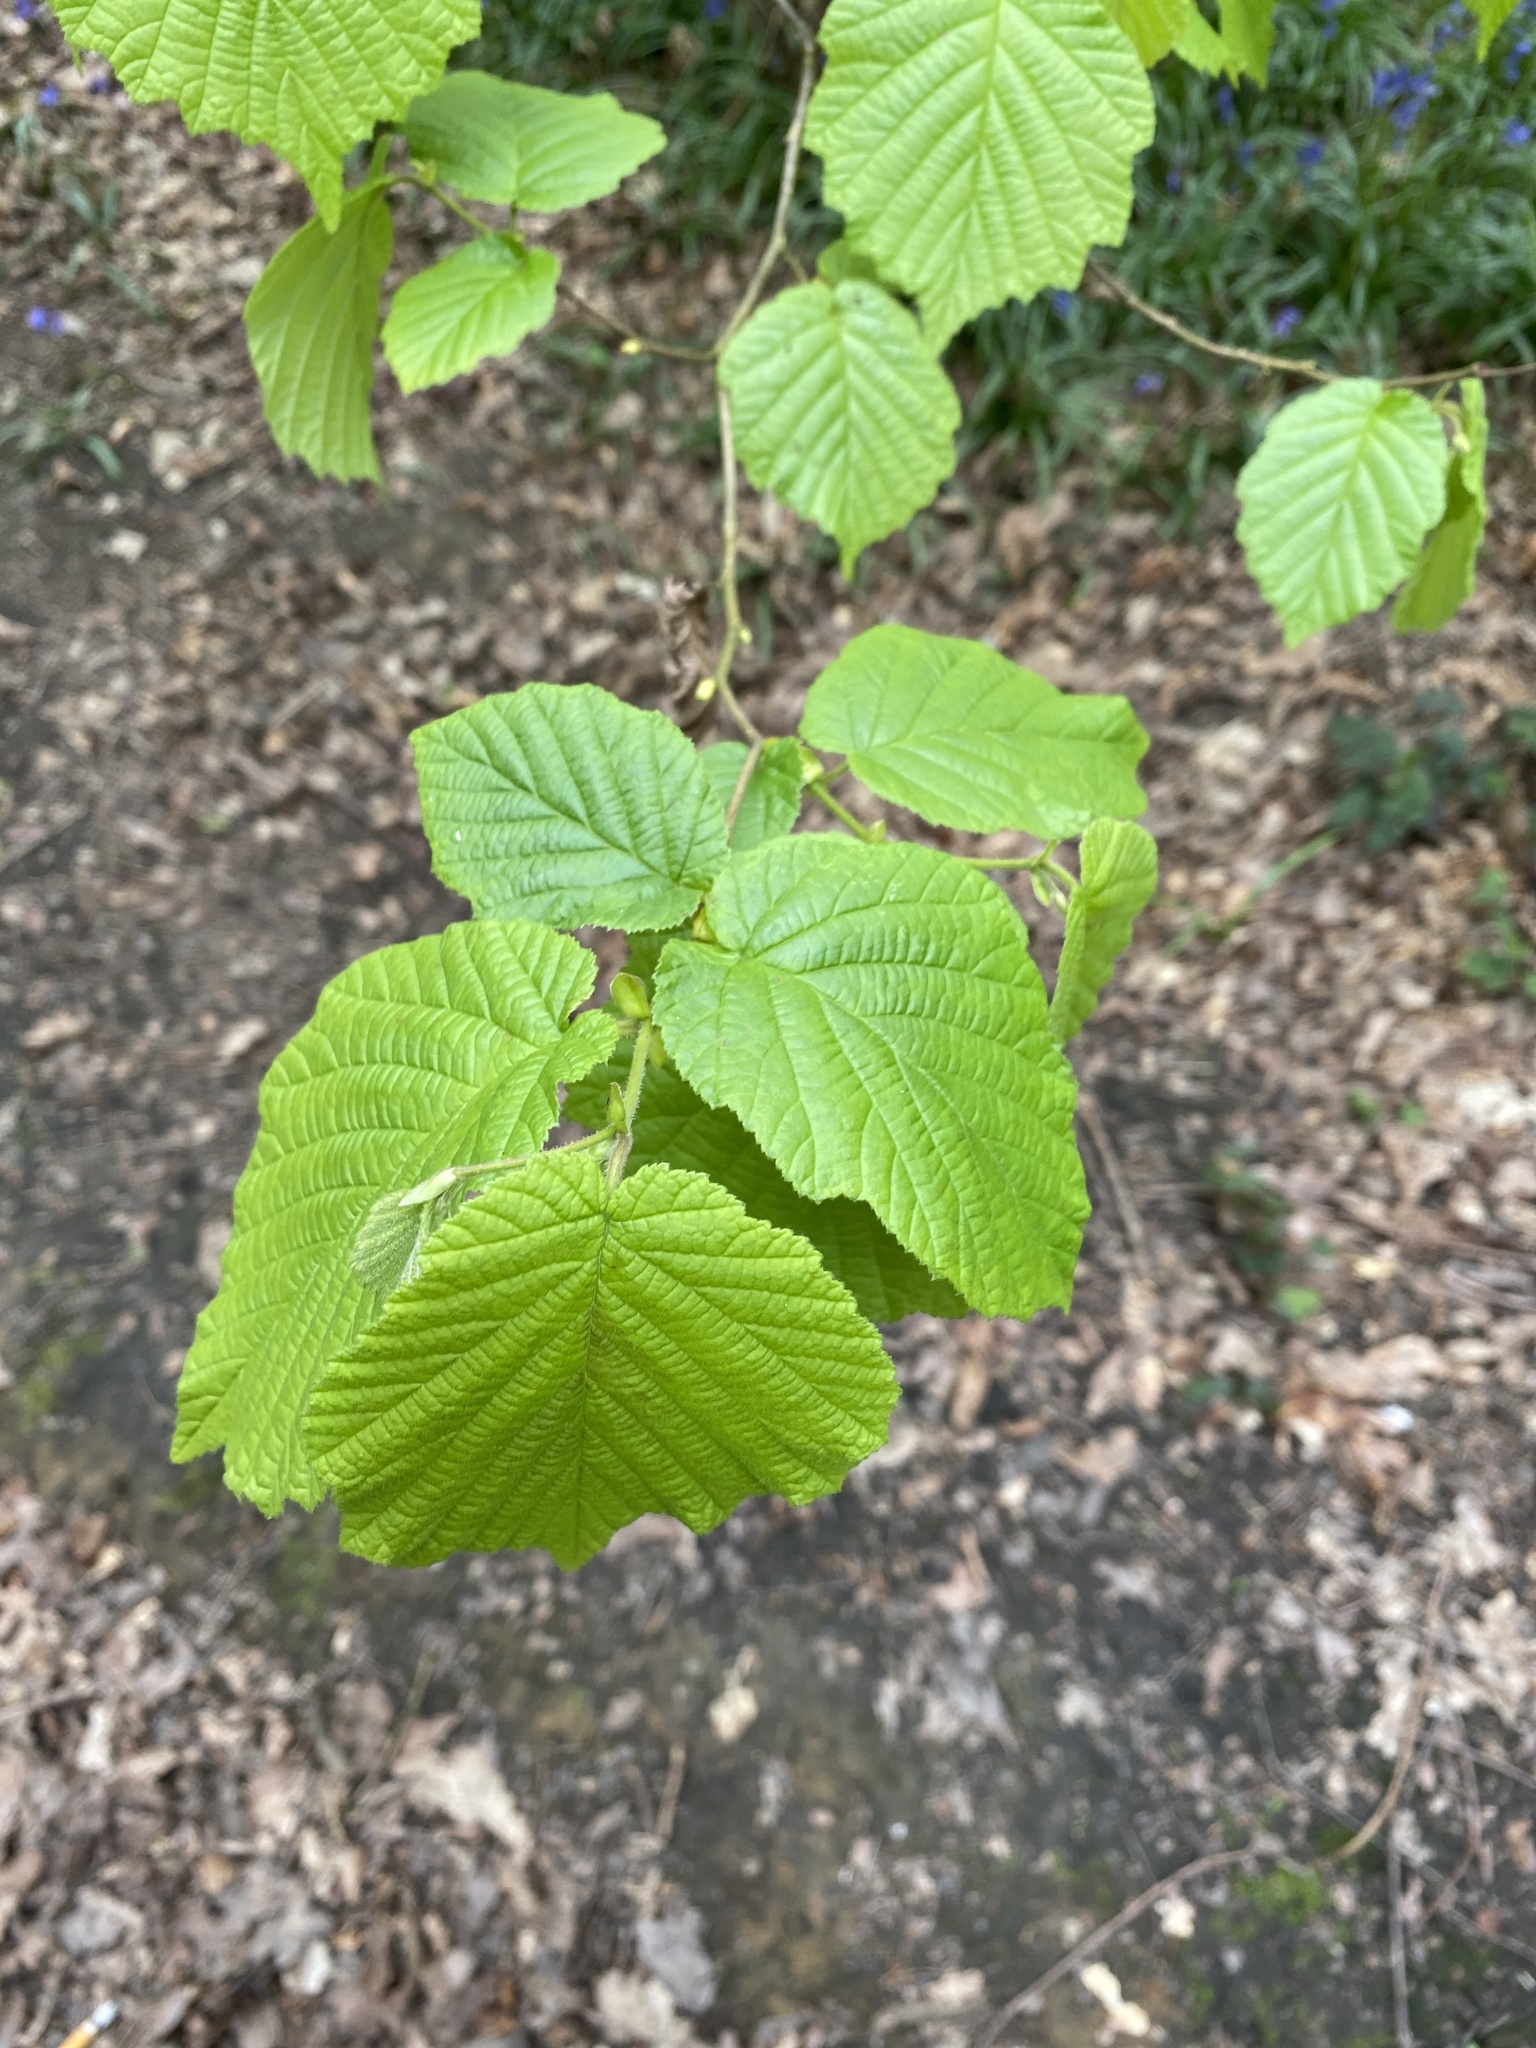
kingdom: Plantae
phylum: Tracheophyta
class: Magnoliopsida
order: Fagales
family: Betulaceae
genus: Corylus
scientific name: Corylus avellana
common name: European hazel
